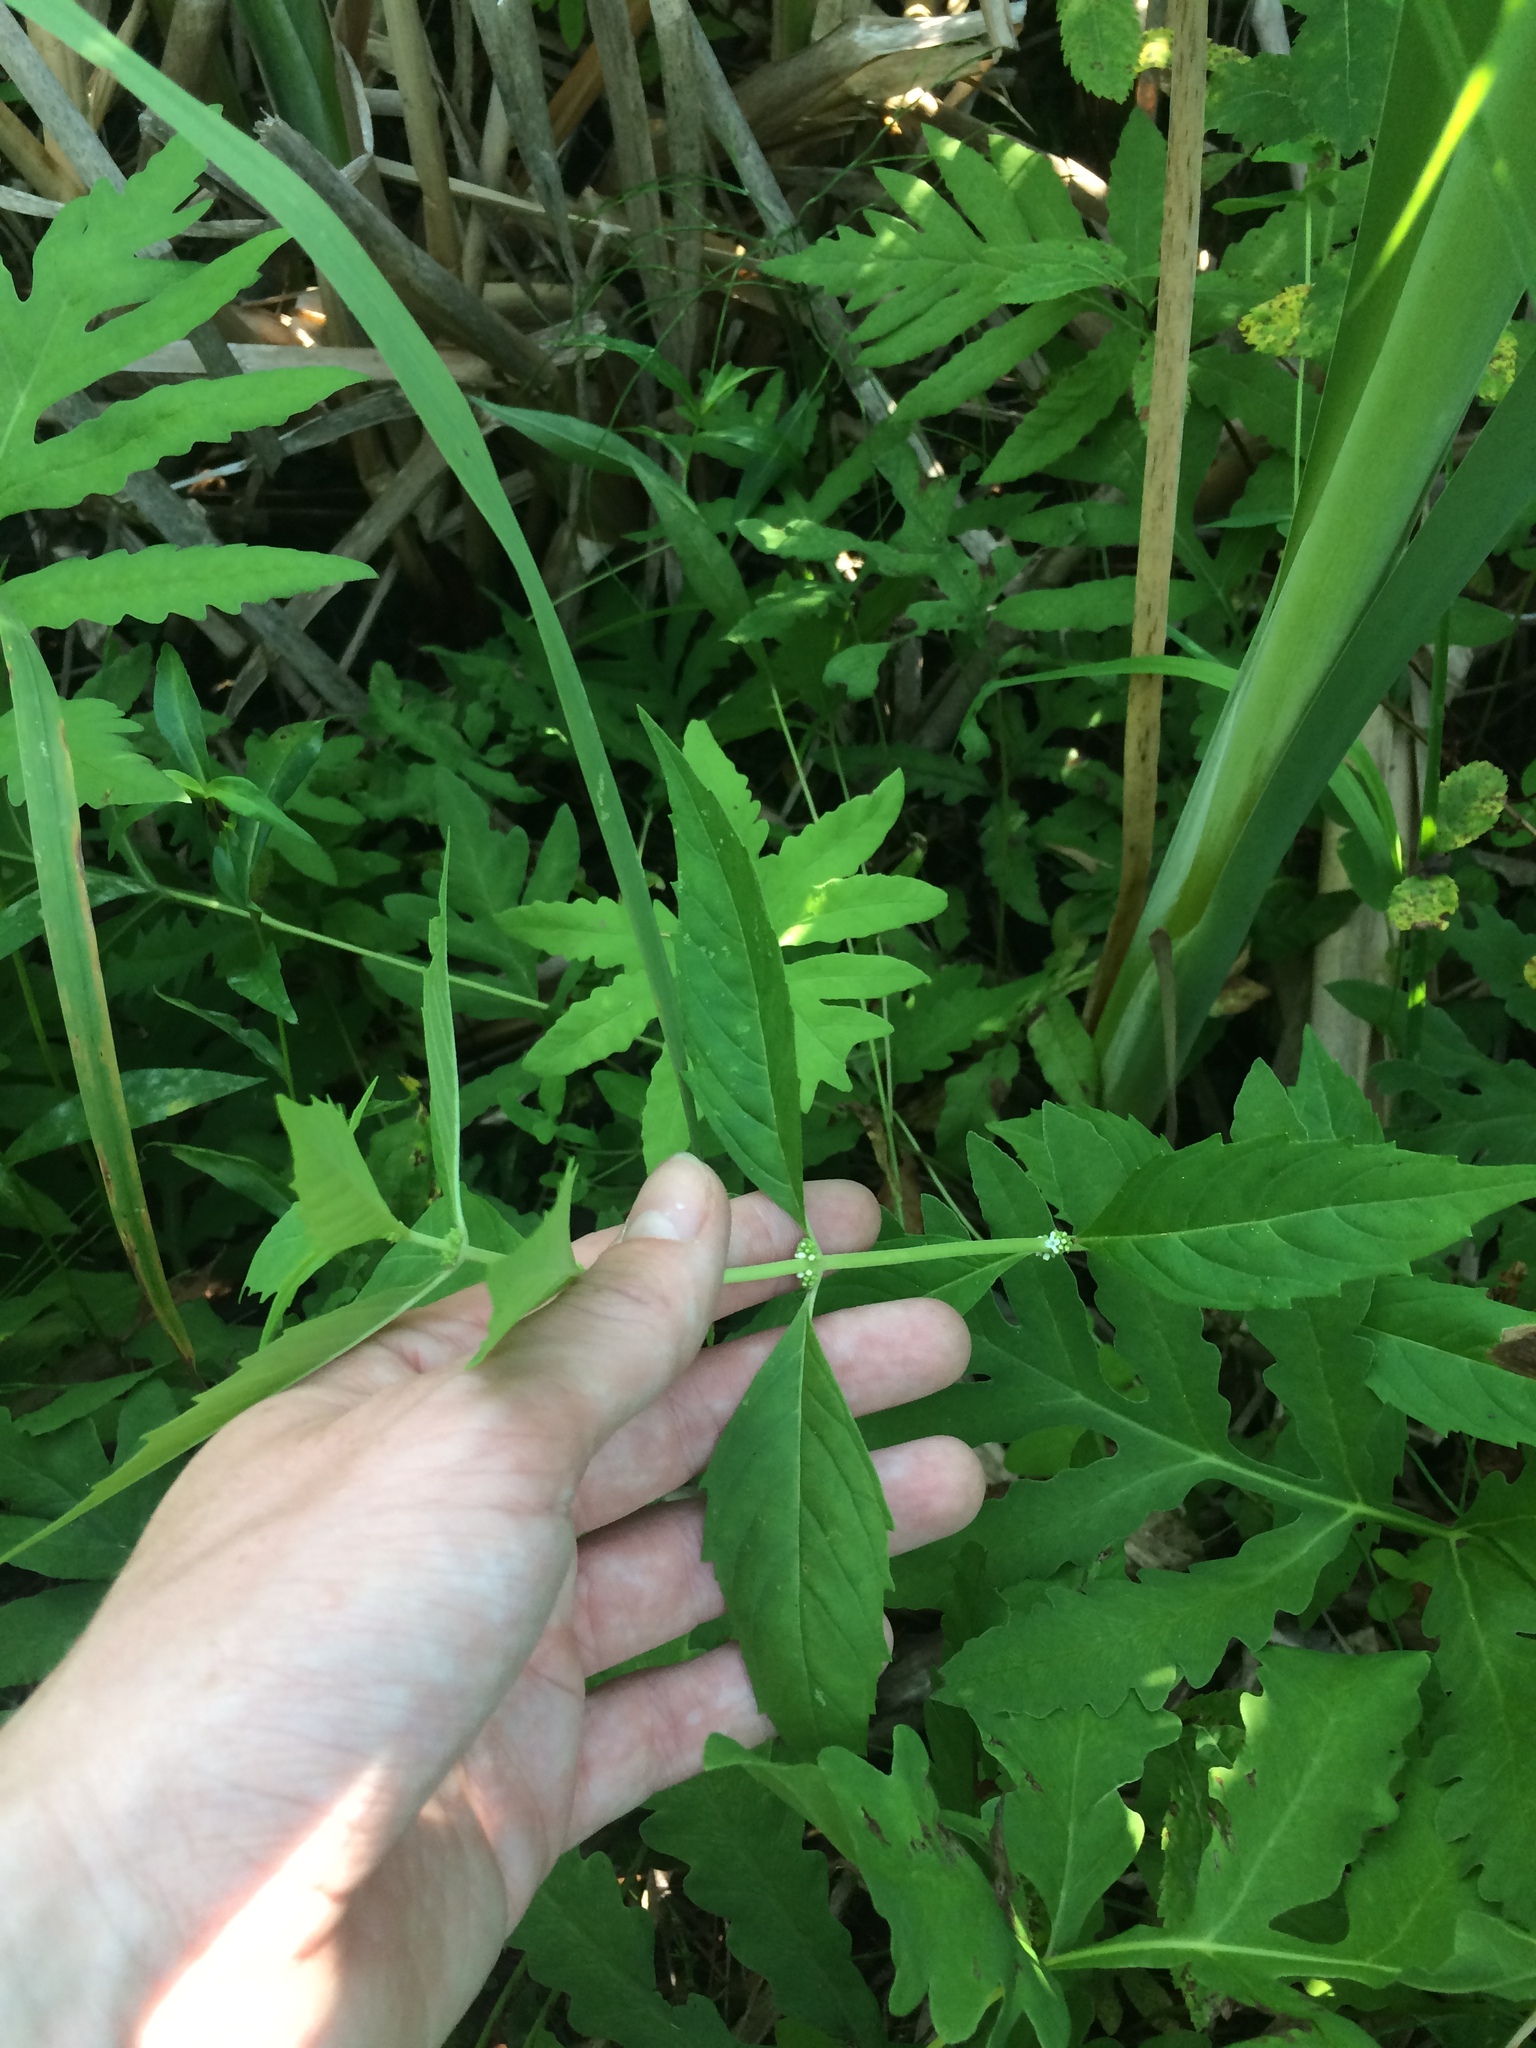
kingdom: Plantae
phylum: Tracheophyta
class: Magnoliopsida
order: Lamiales
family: Lamiaceae
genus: Lycopus
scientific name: Lycopus uniflorus
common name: Northern bugleweed
